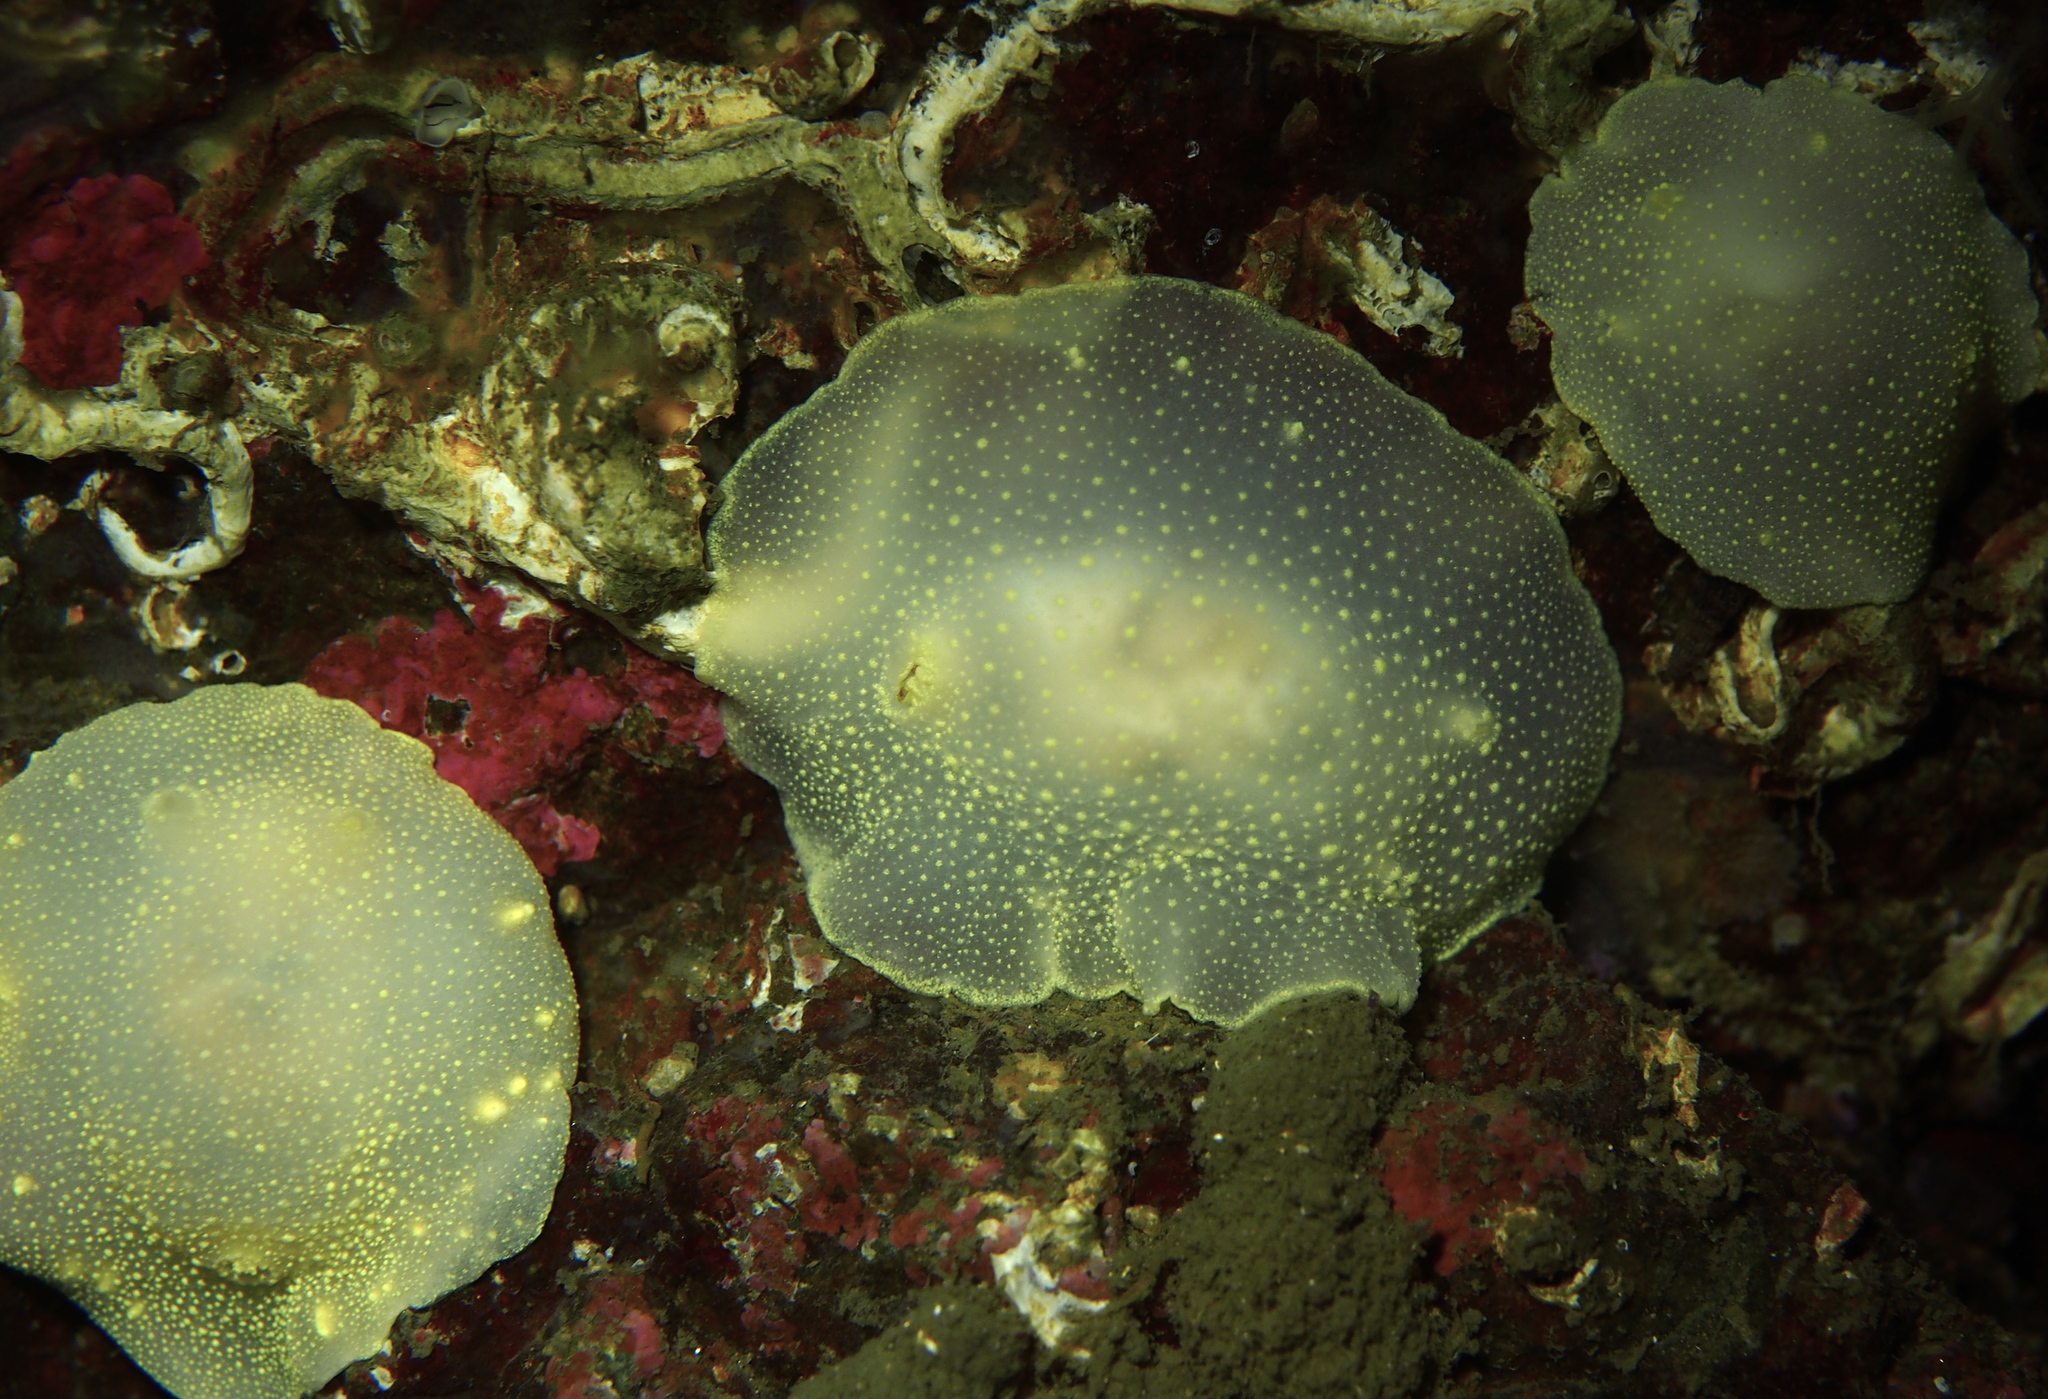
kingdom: Animalia
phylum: Mollusca
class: Gastropoda
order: Nudibranchia
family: Cadlinidae
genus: Cadlina
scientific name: Cadlina laevis
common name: White atlantic cadlina
